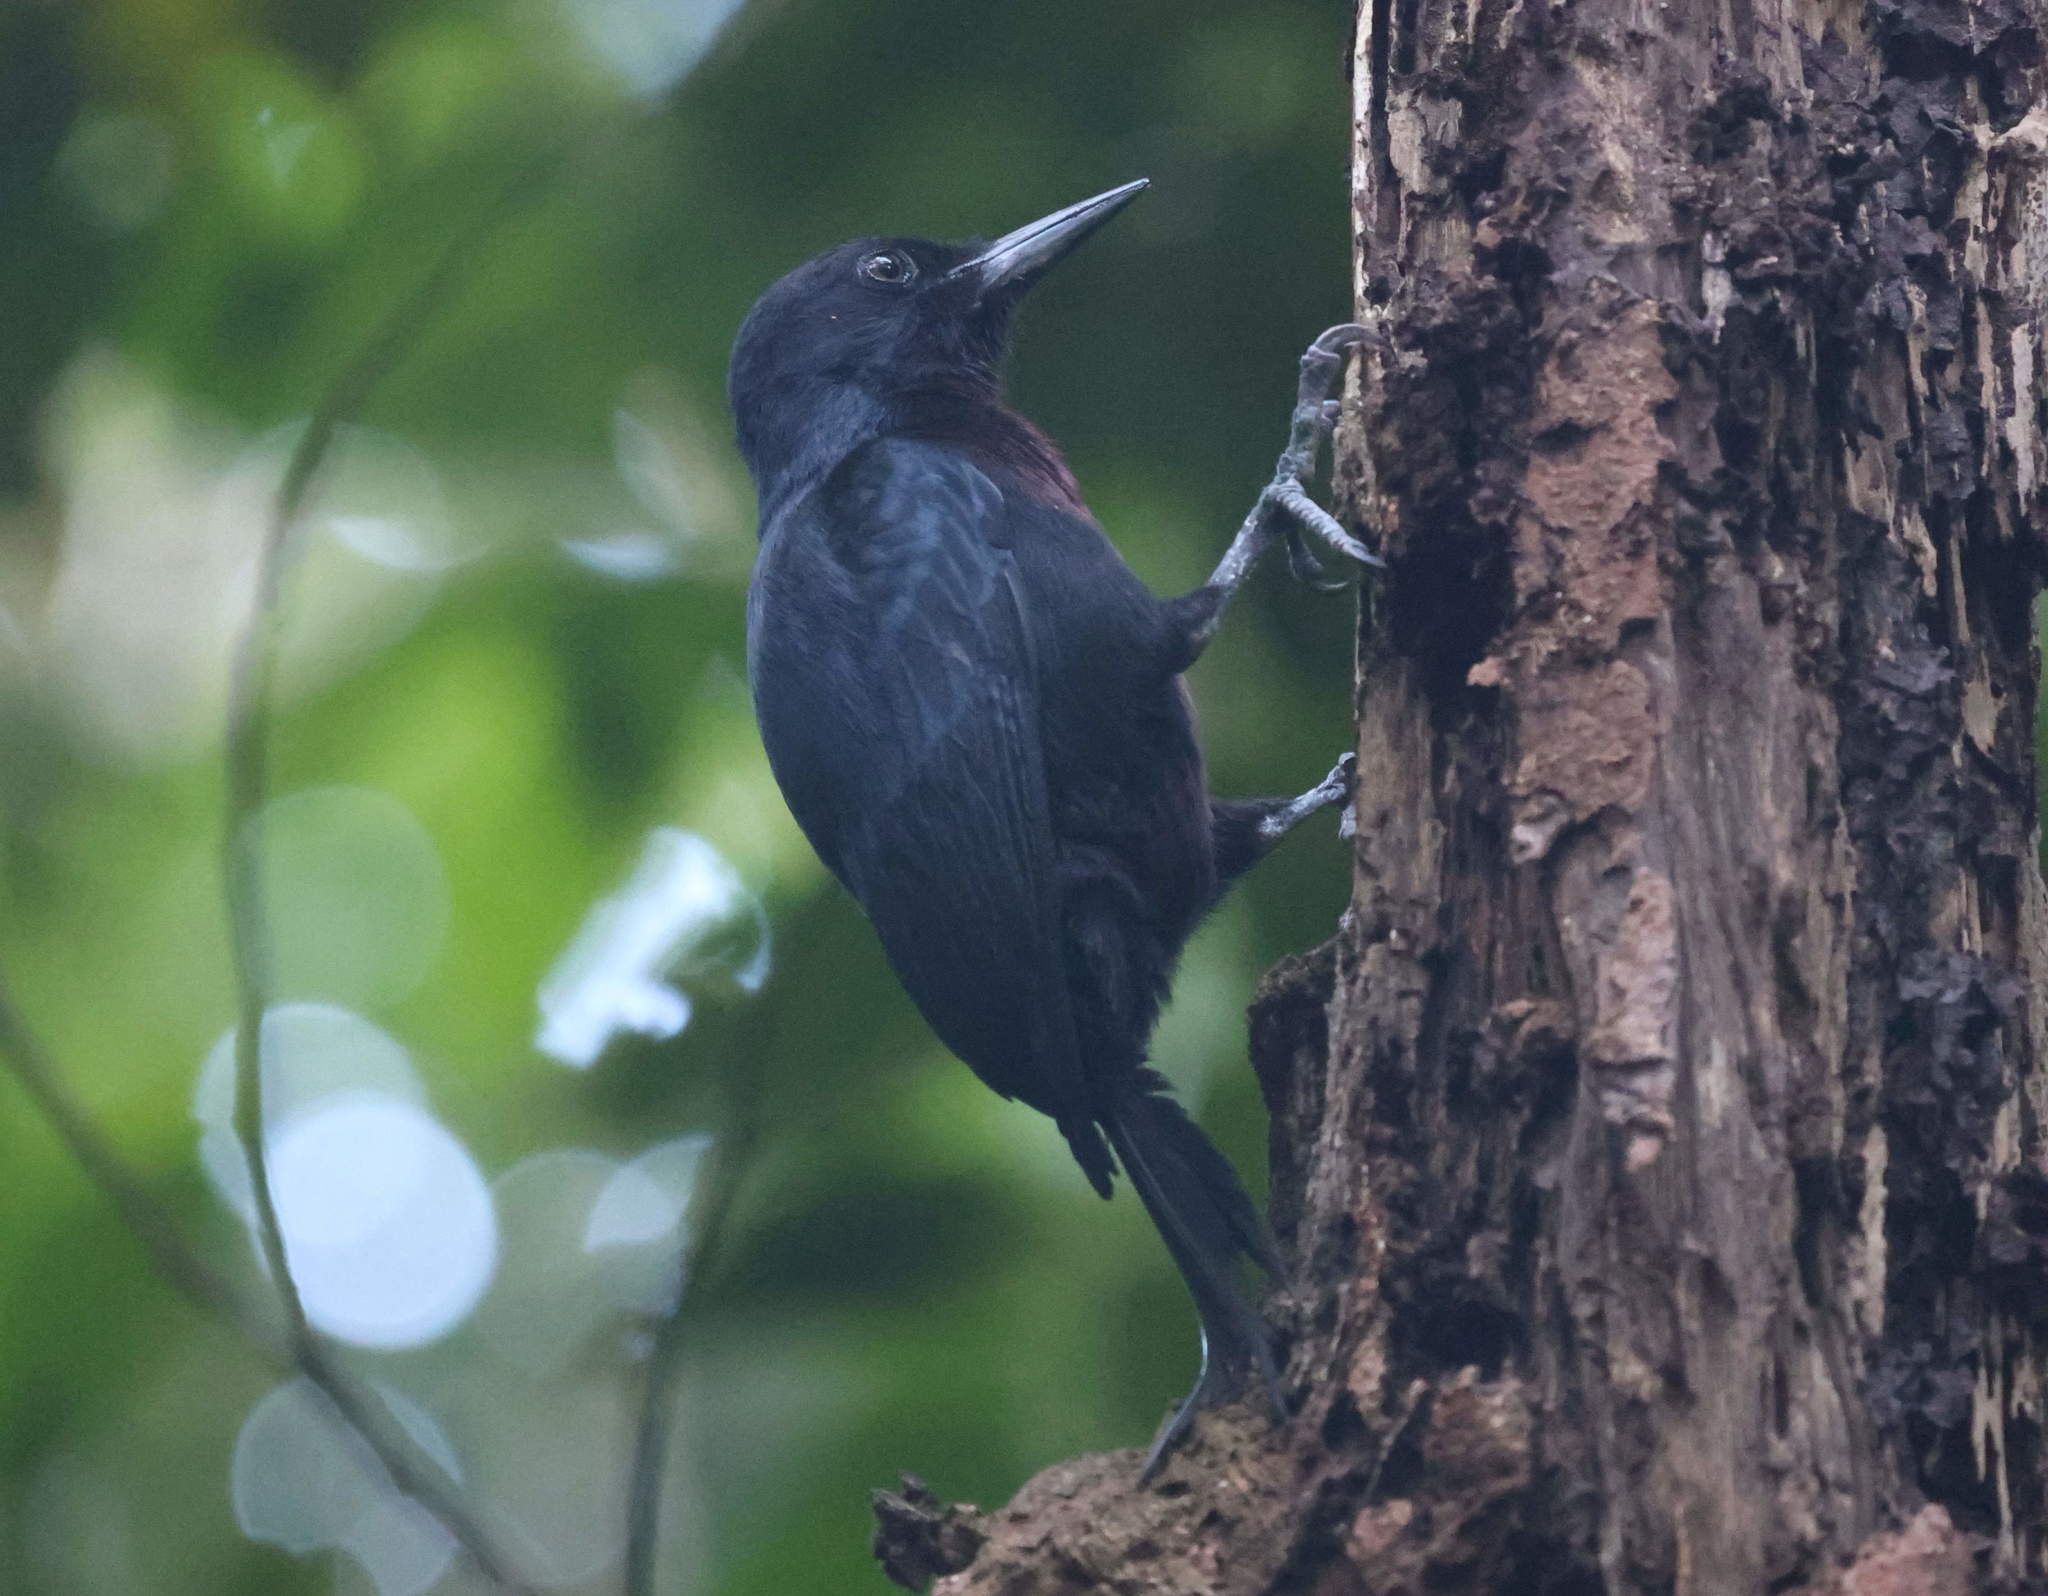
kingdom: Animalia
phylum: Chordata
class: Aves
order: Piciformes
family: Picidae
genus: Melanerpes
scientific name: Melanerpes herminieri
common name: Guadeloupe woodpecker
